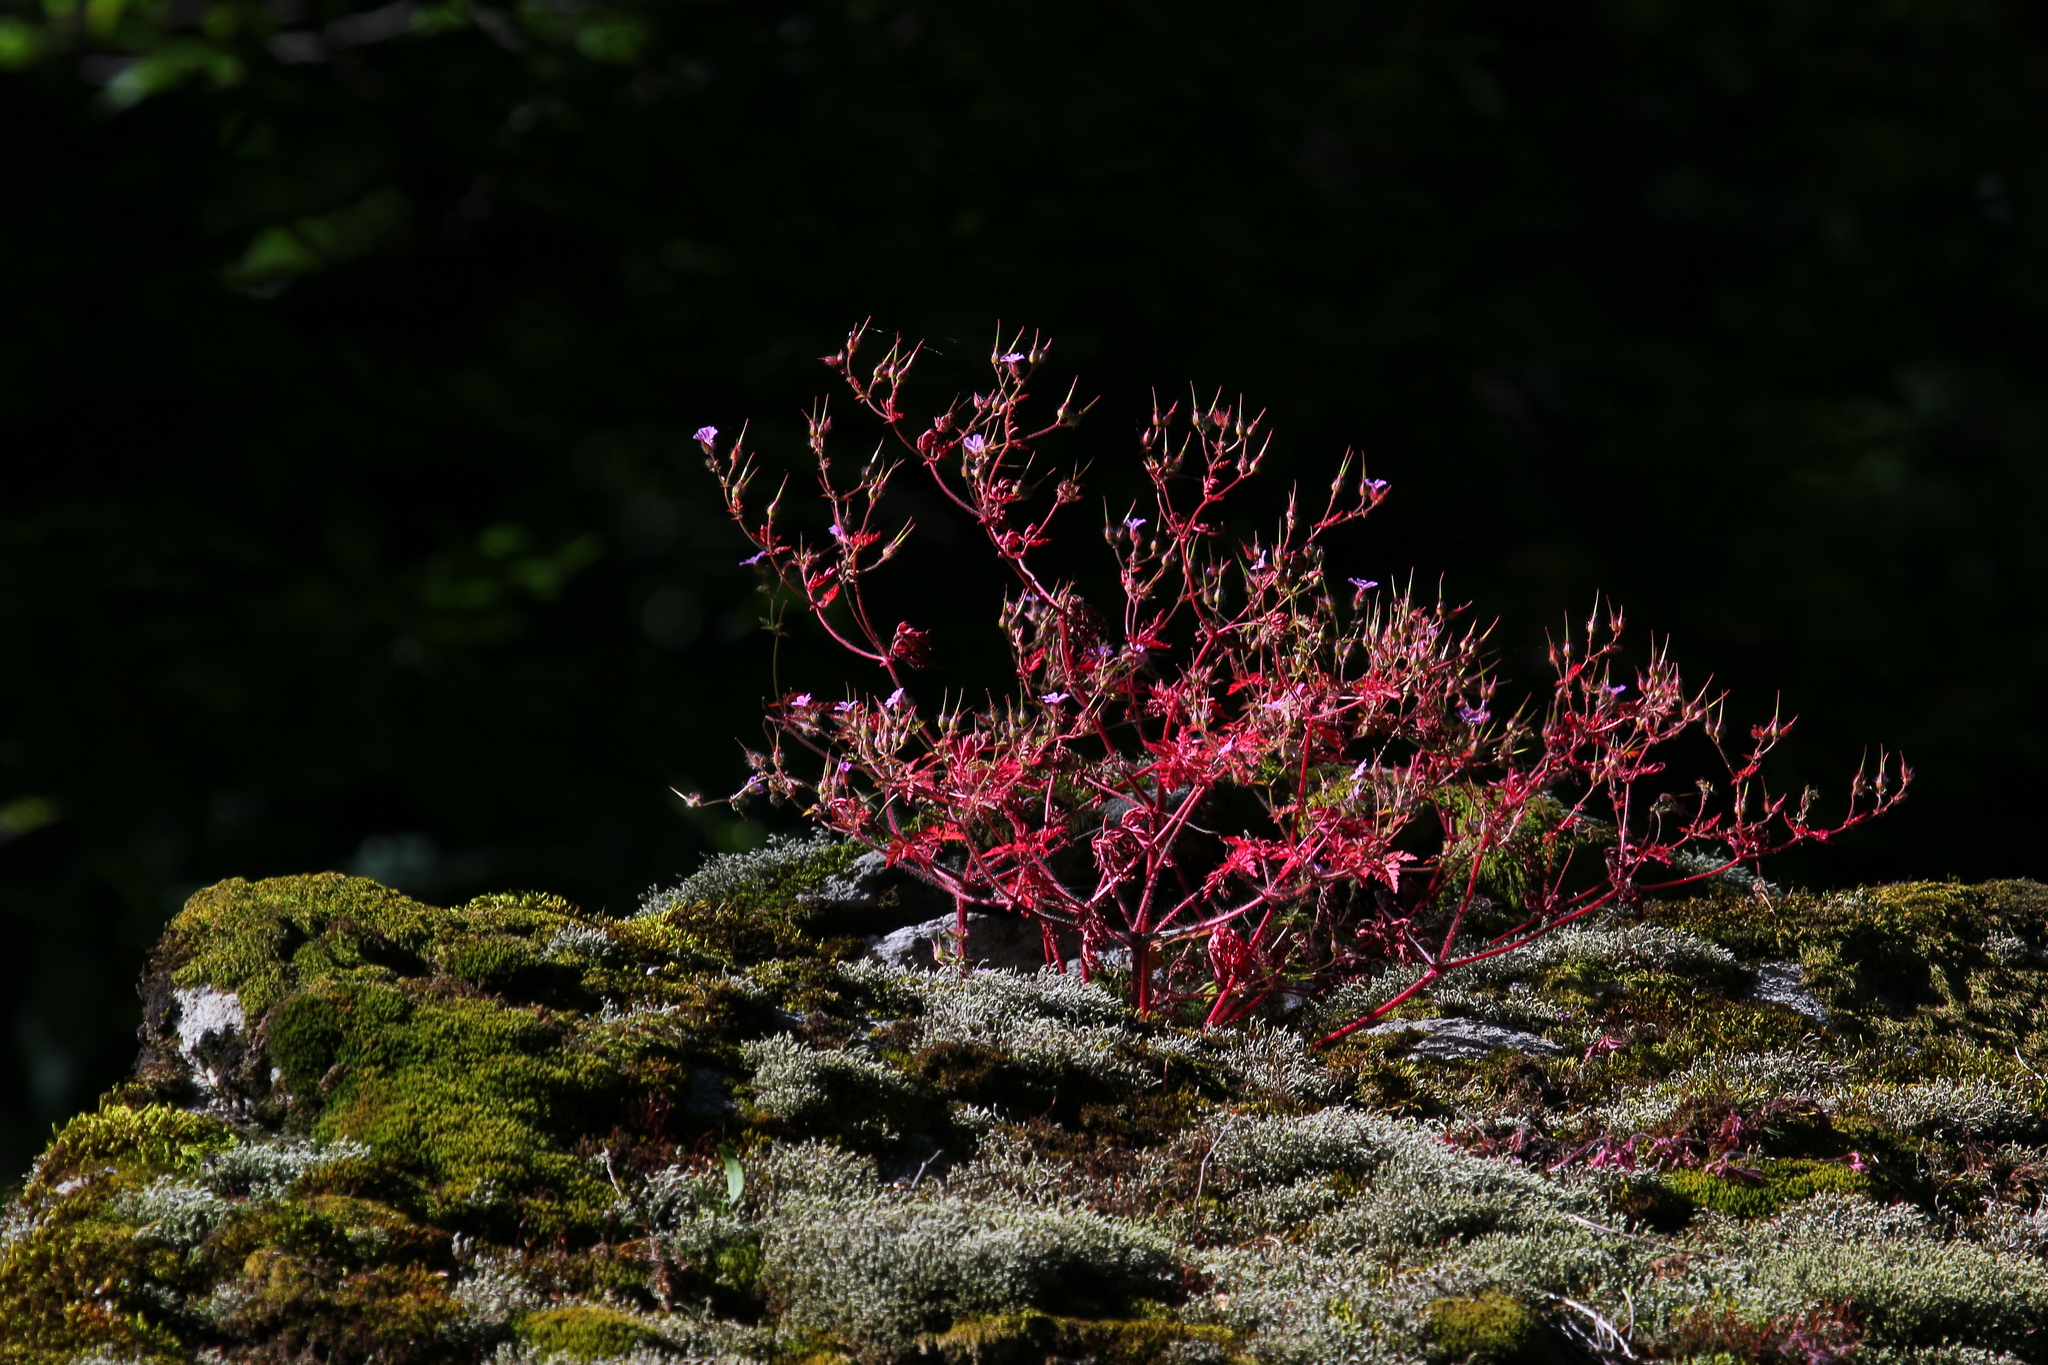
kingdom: Plantae
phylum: Tracheophyta
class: Magnoliopsida
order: Geraniales
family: Geraniaceae
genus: Geranium
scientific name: Geranium robertianum
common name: Herb-robert
